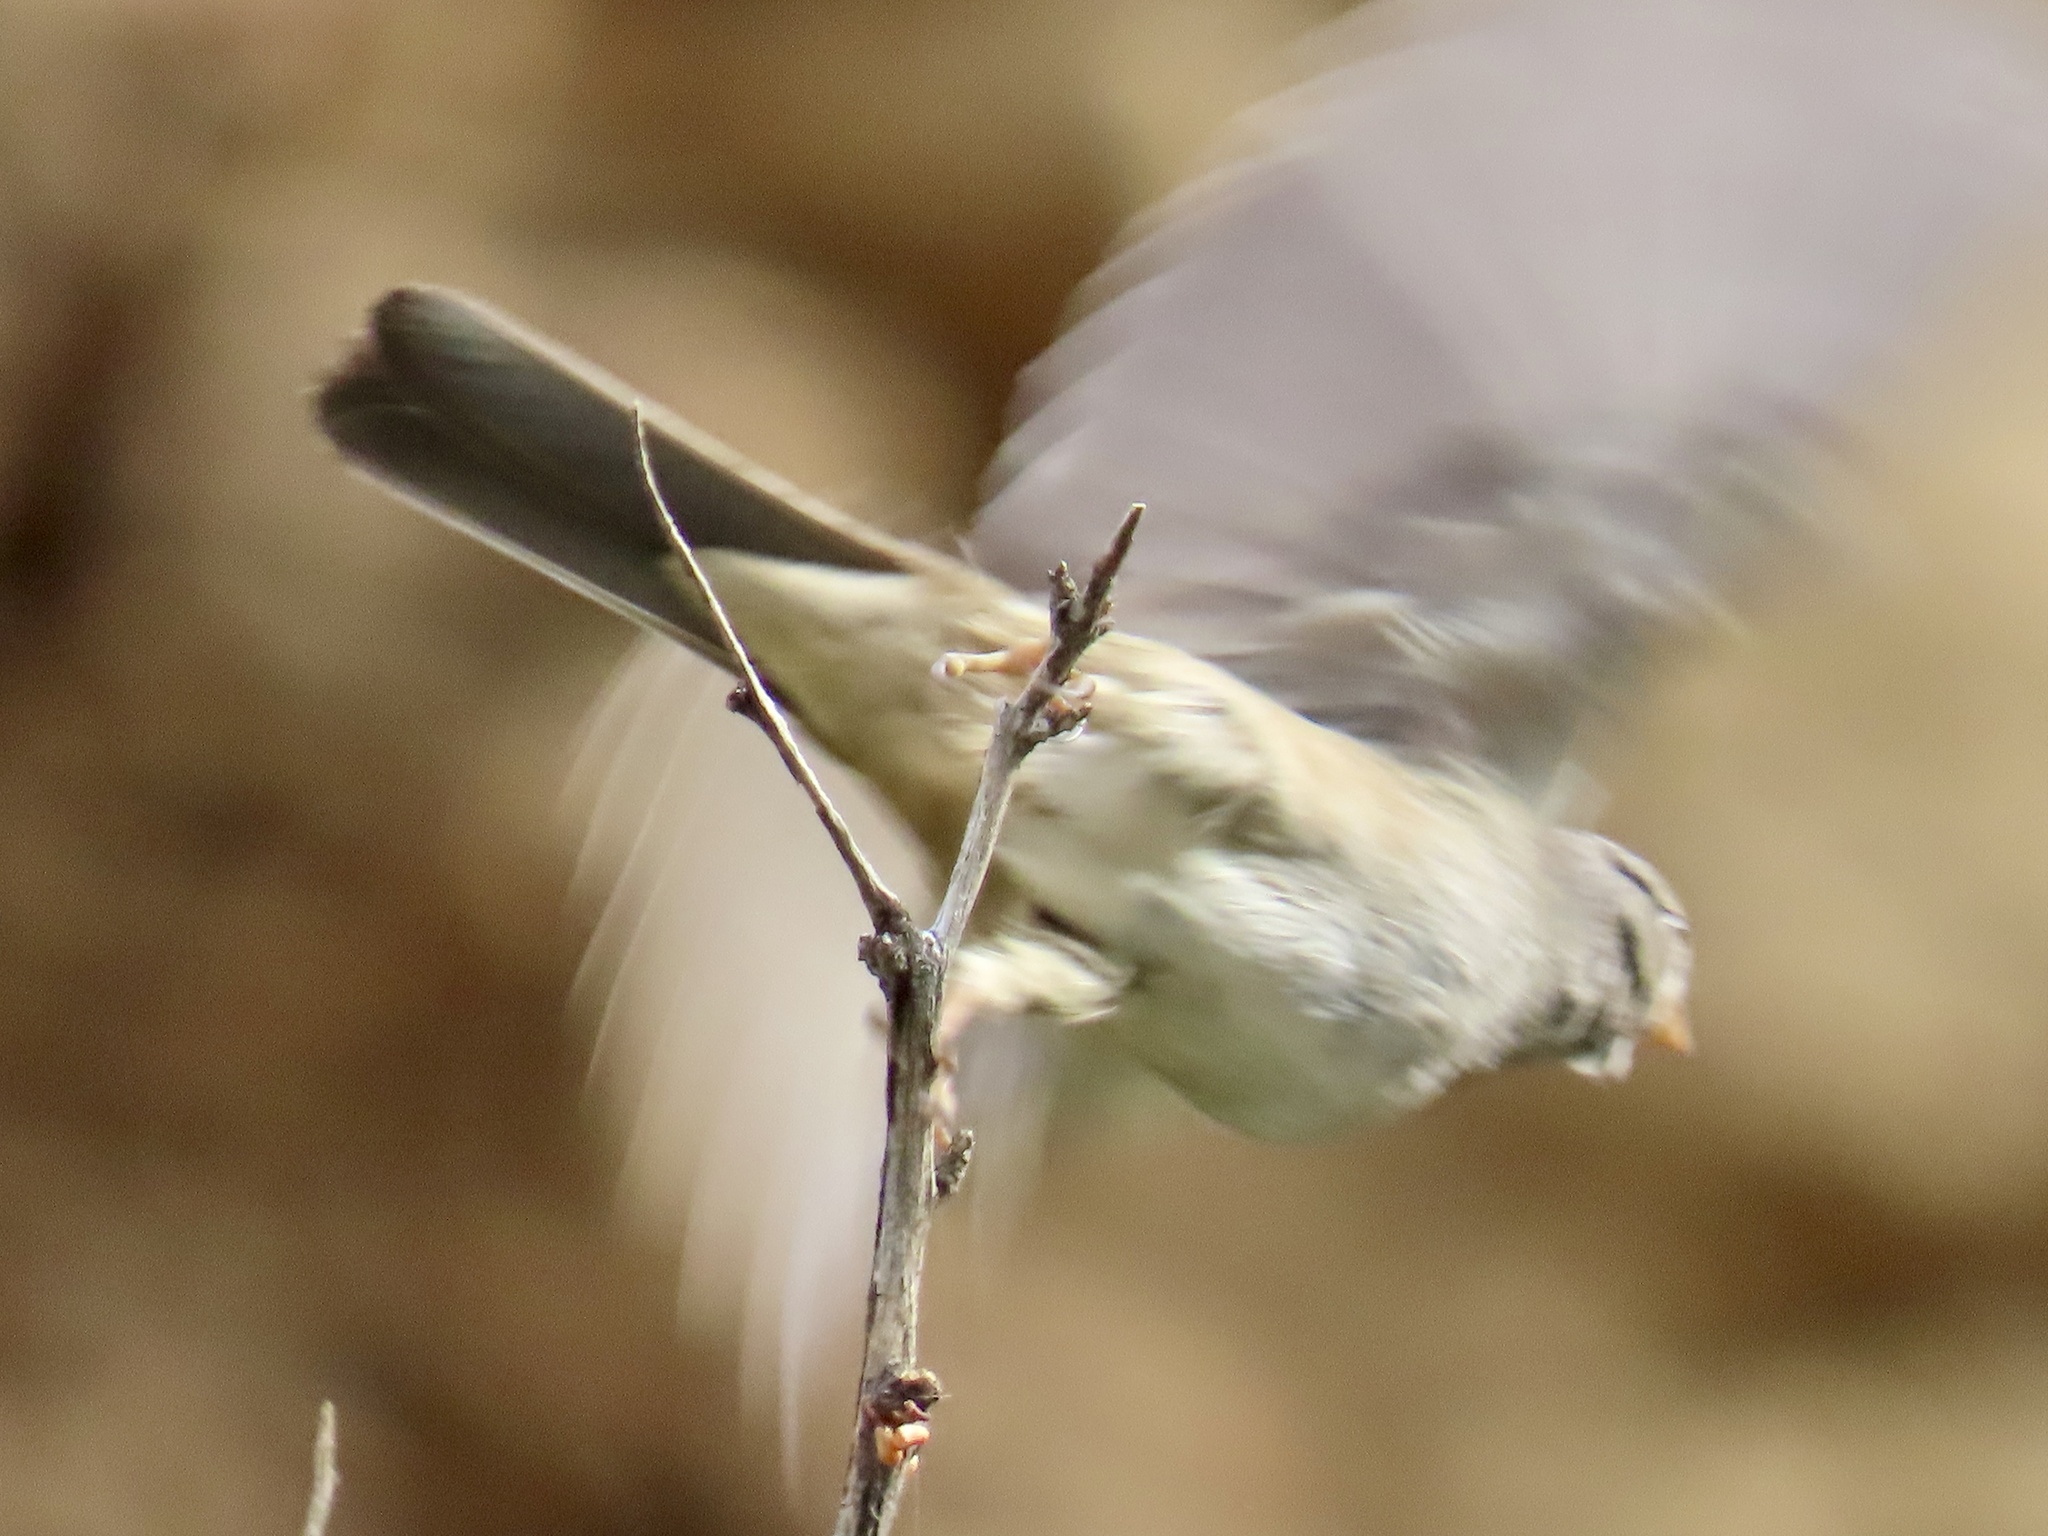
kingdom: Animalia
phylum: Chordata
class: Aves
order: Passeriformes
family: Passerellidae
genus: Zonotrichia
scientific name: Zonotrichia leucophrys
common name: White-crowned sparrow
